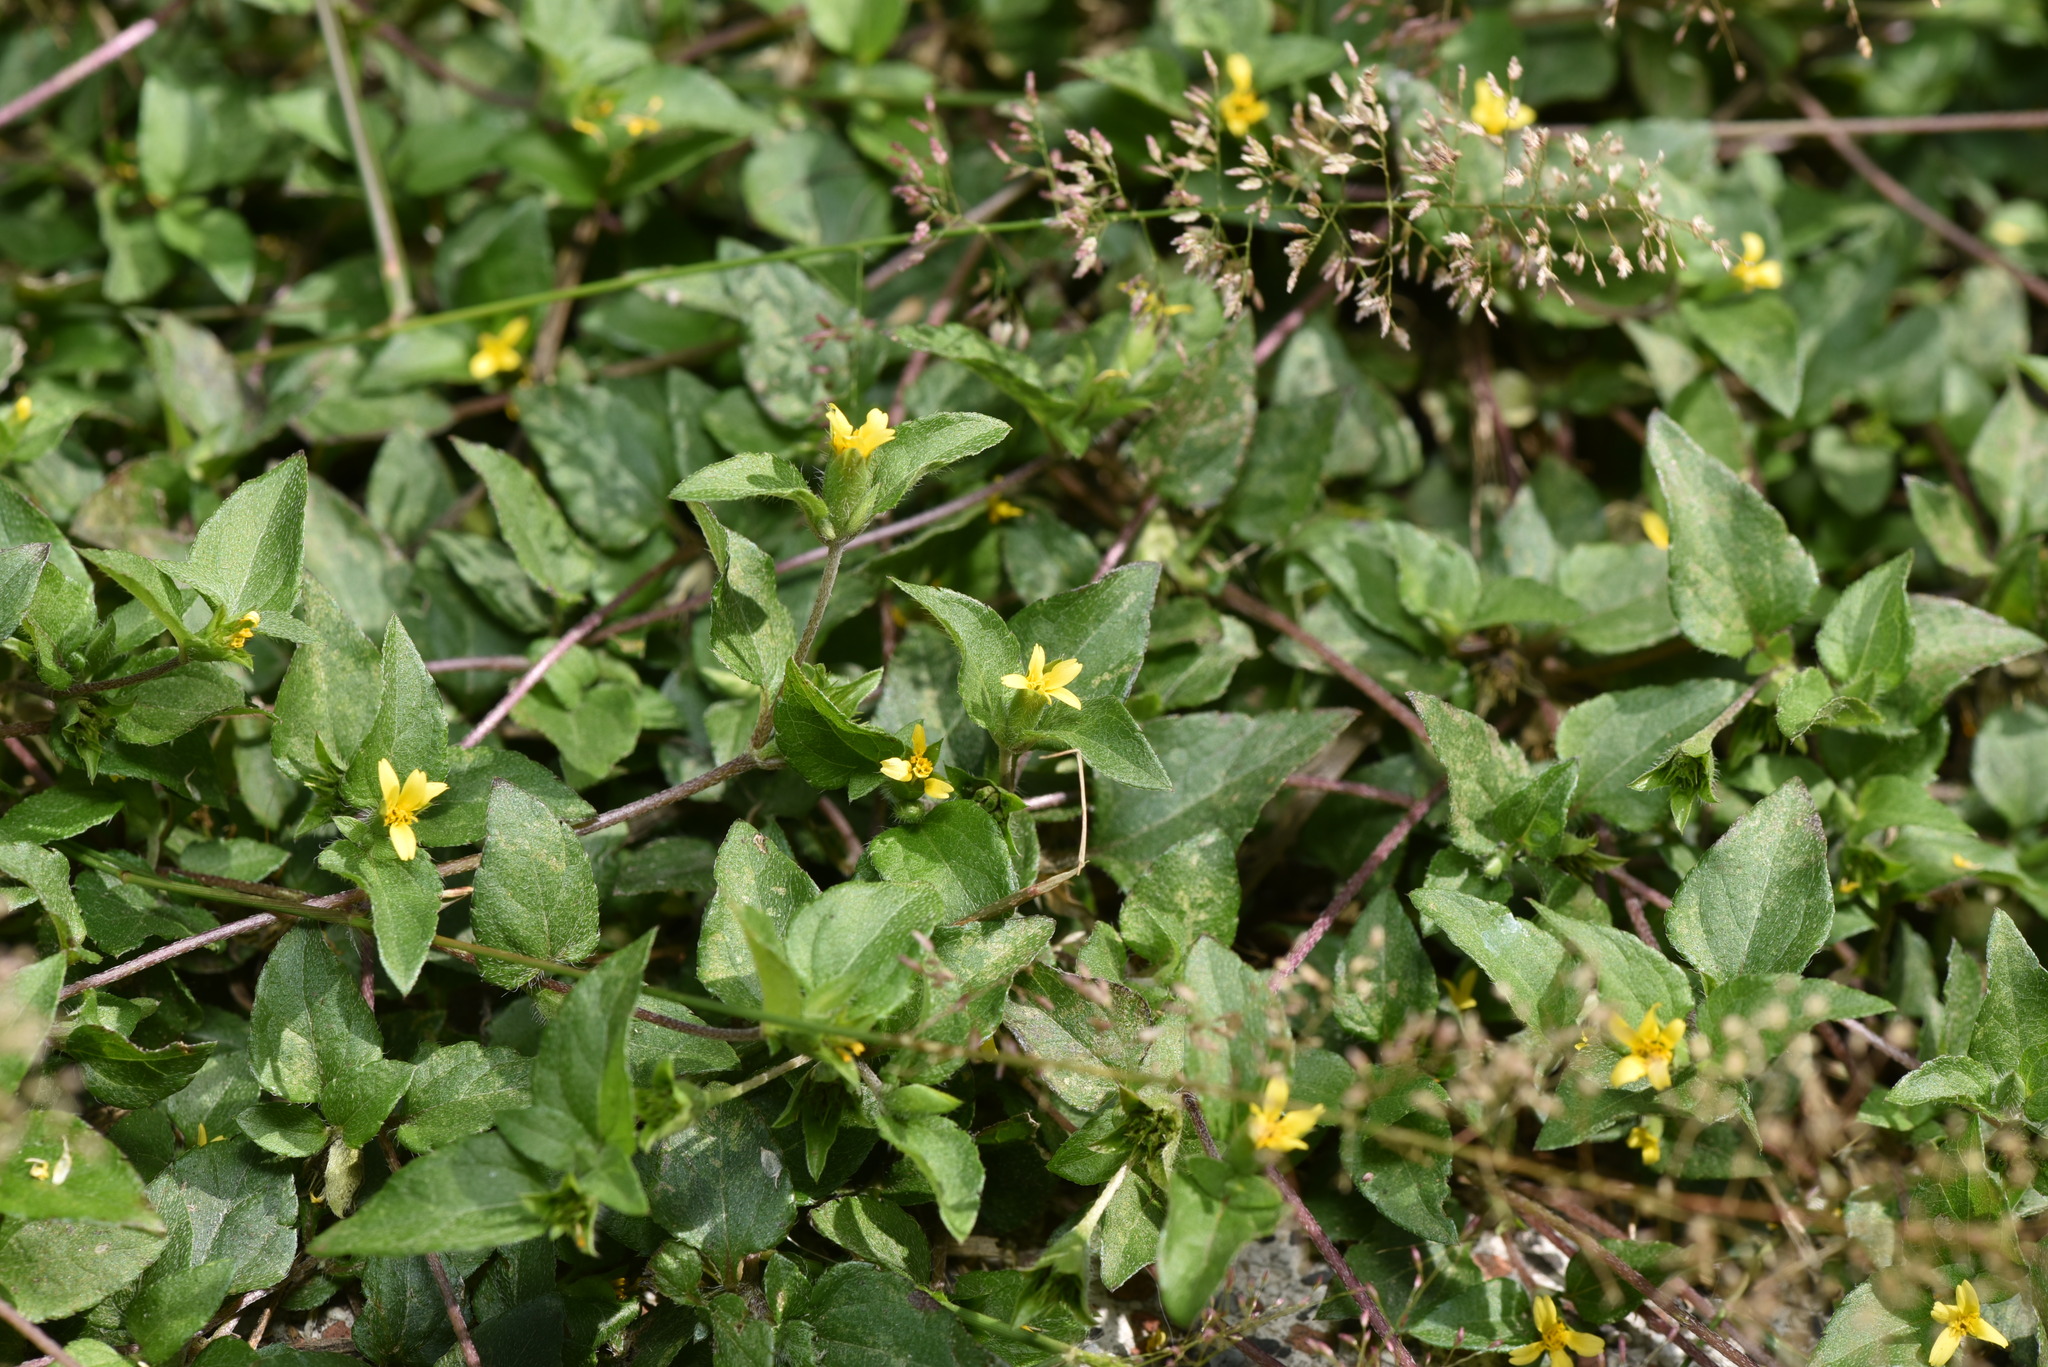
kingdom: Plantae
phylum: Tracheophyta
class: Magnoliopsida
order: Asterales
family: Asteraceae
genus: Calyptocarpus
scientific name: Calyptocarpus vialis
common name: Straggler daisy
